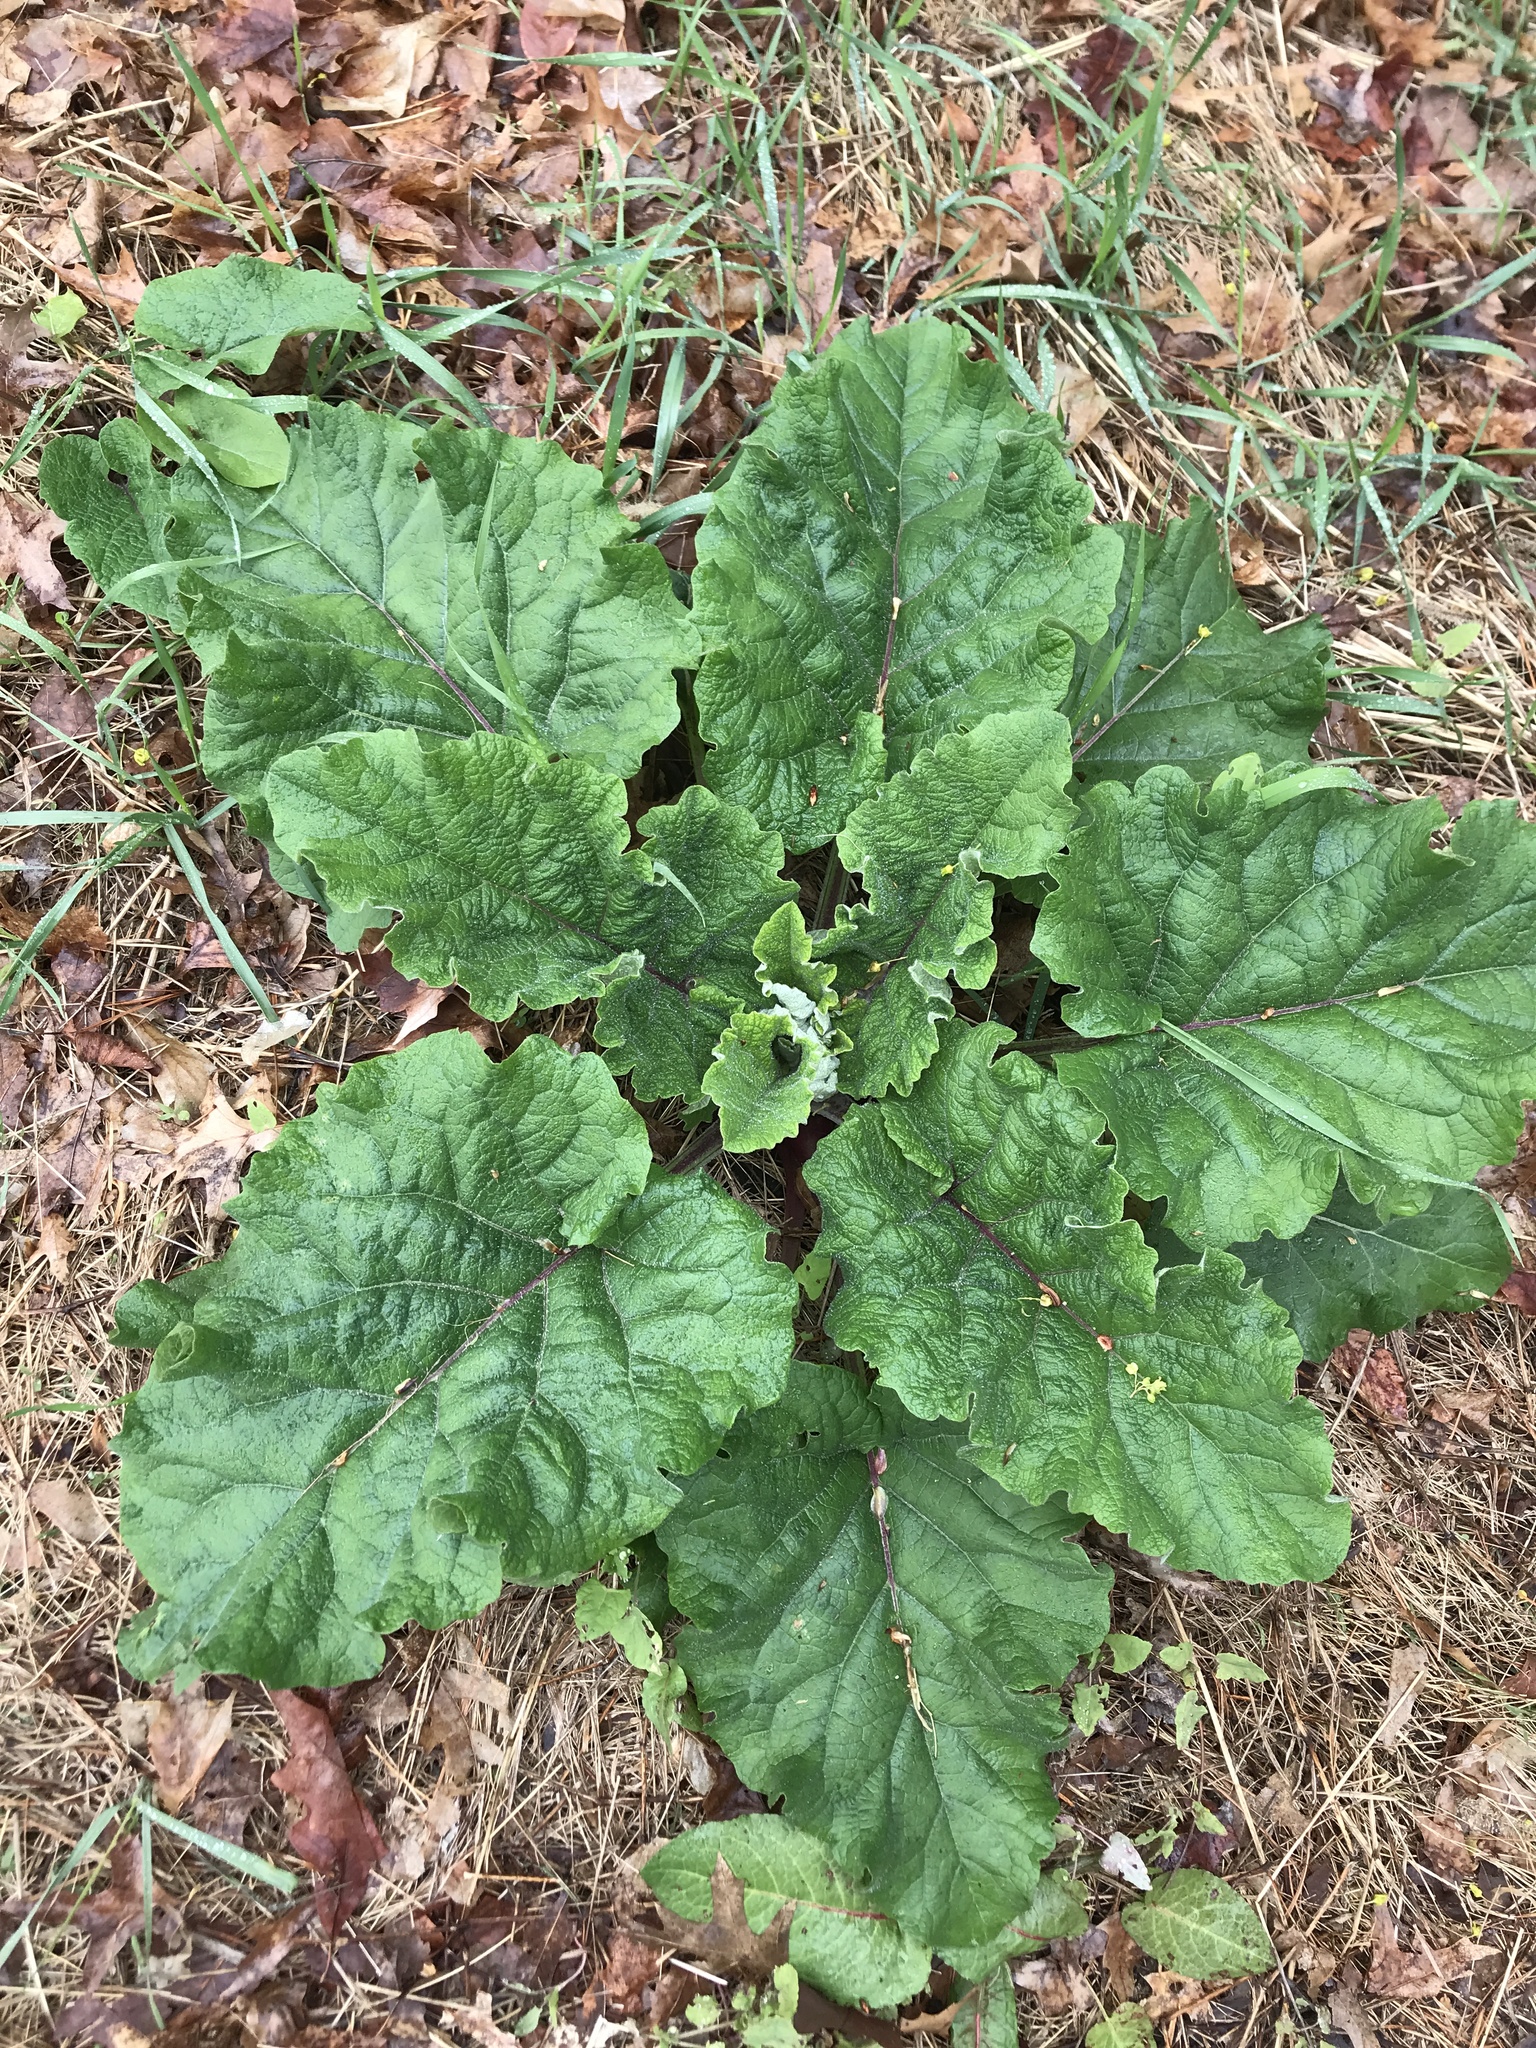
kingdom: Plantae
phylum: Tracheophyta
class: Magnoliopsida
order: Asterales
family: Asteraceae
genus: Arctium
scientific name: Arctium
